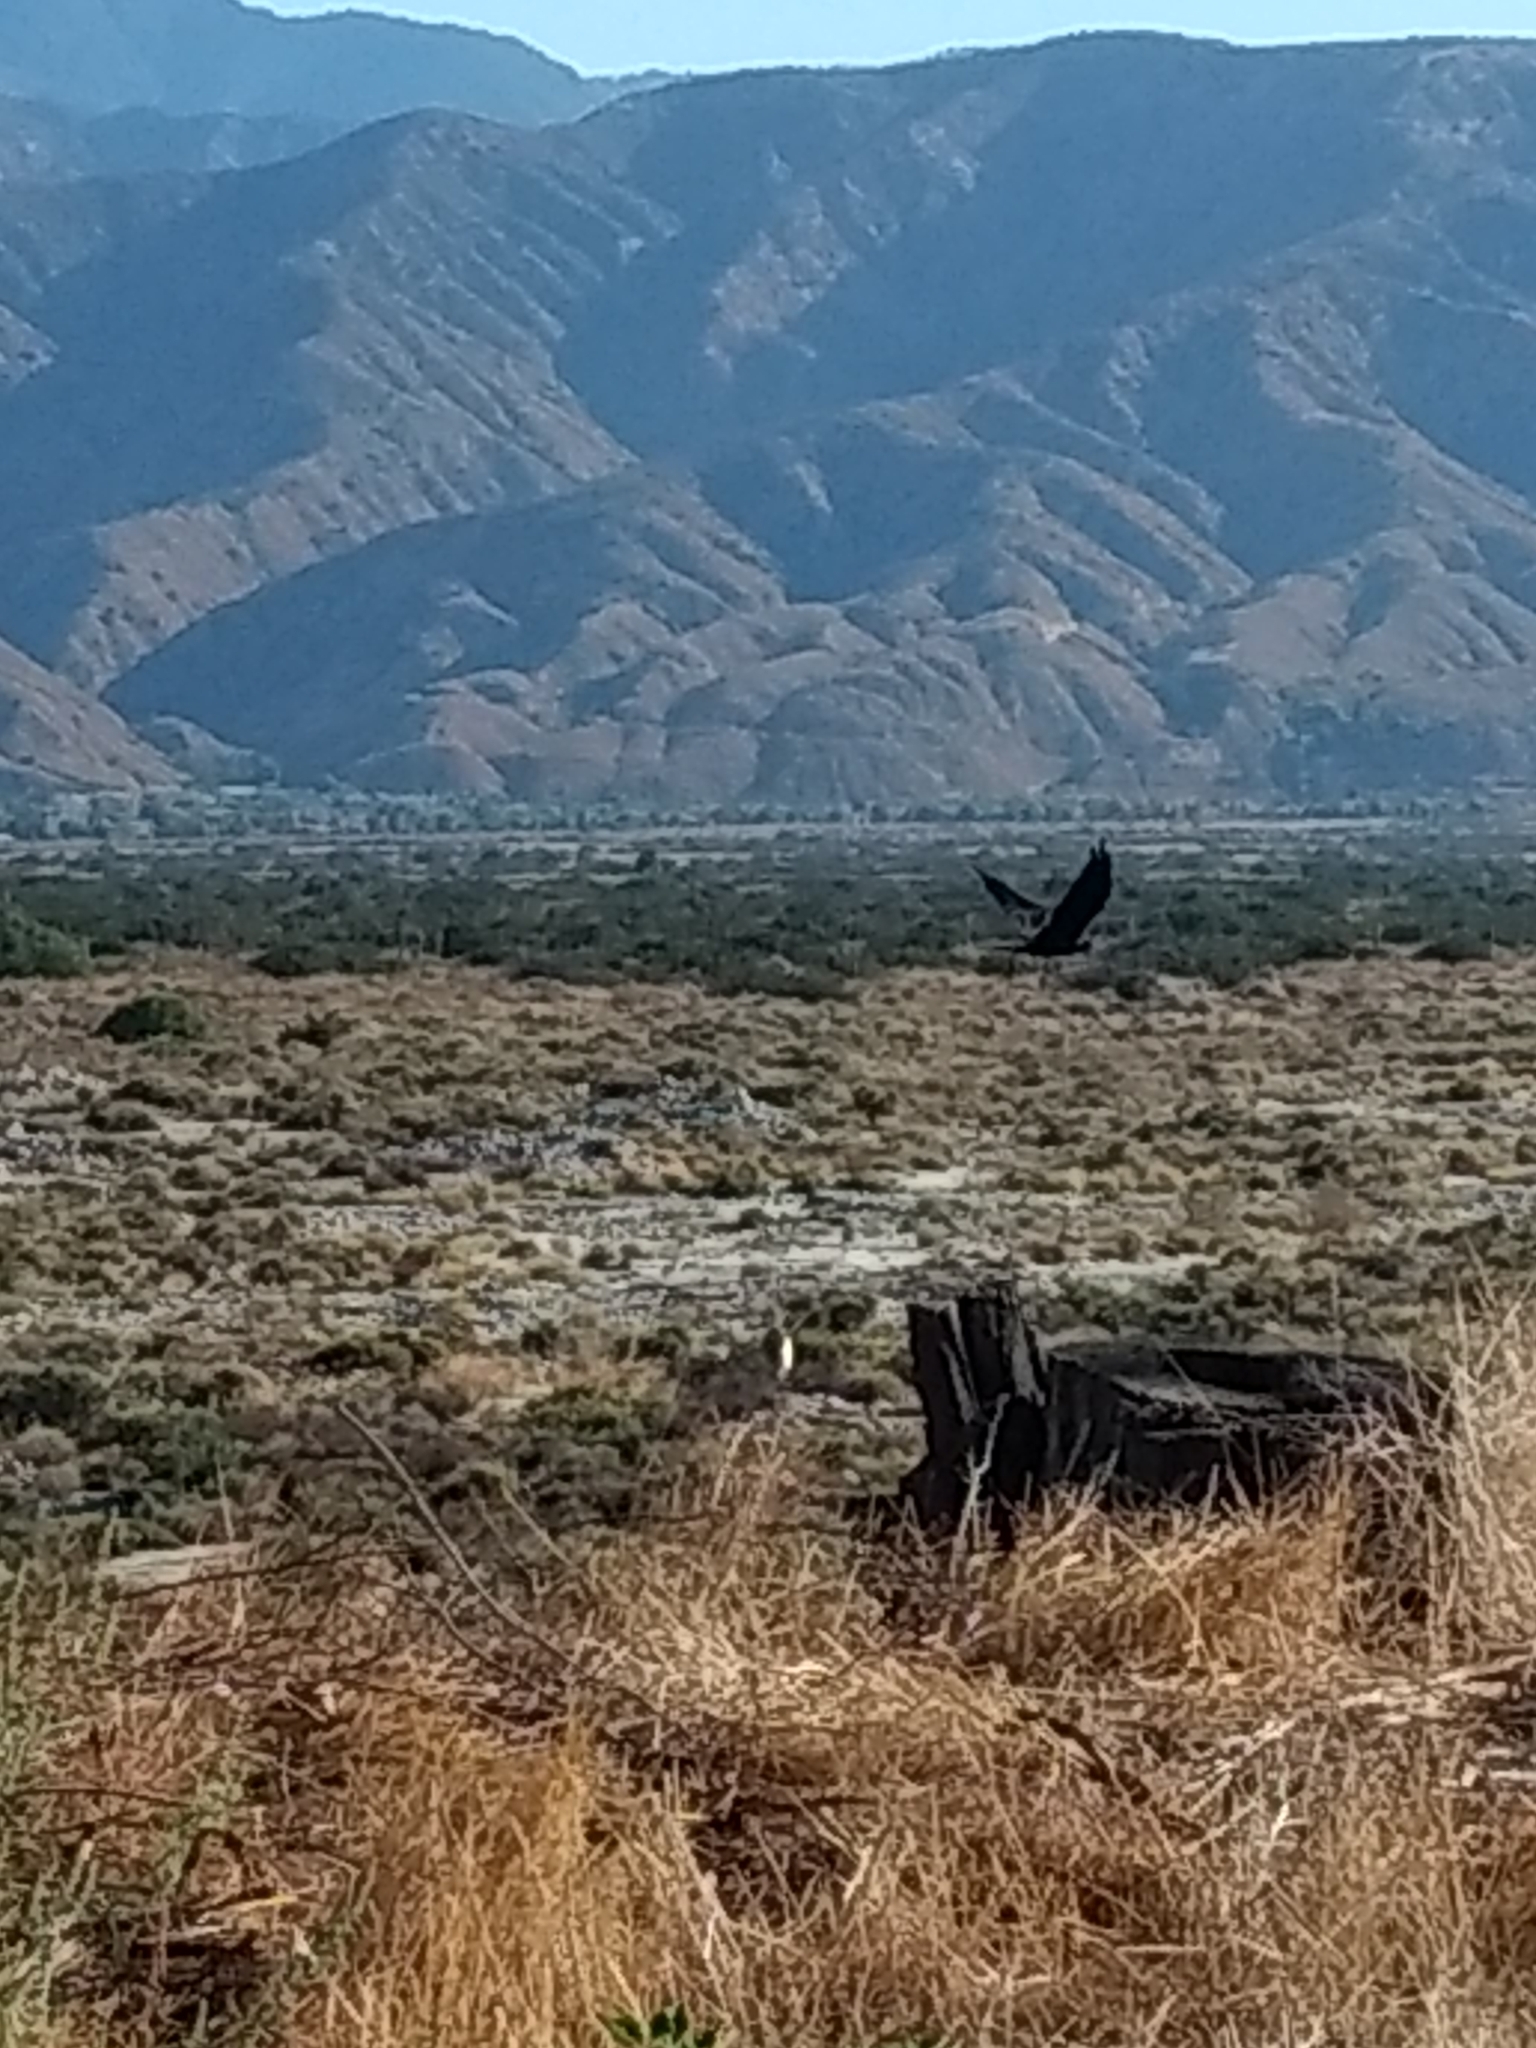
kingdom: Animalia
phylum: Chordata
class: Aves
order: Passeriformes
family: Corvidae
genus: Corvus
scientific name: Corvus corax
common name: Common raven
